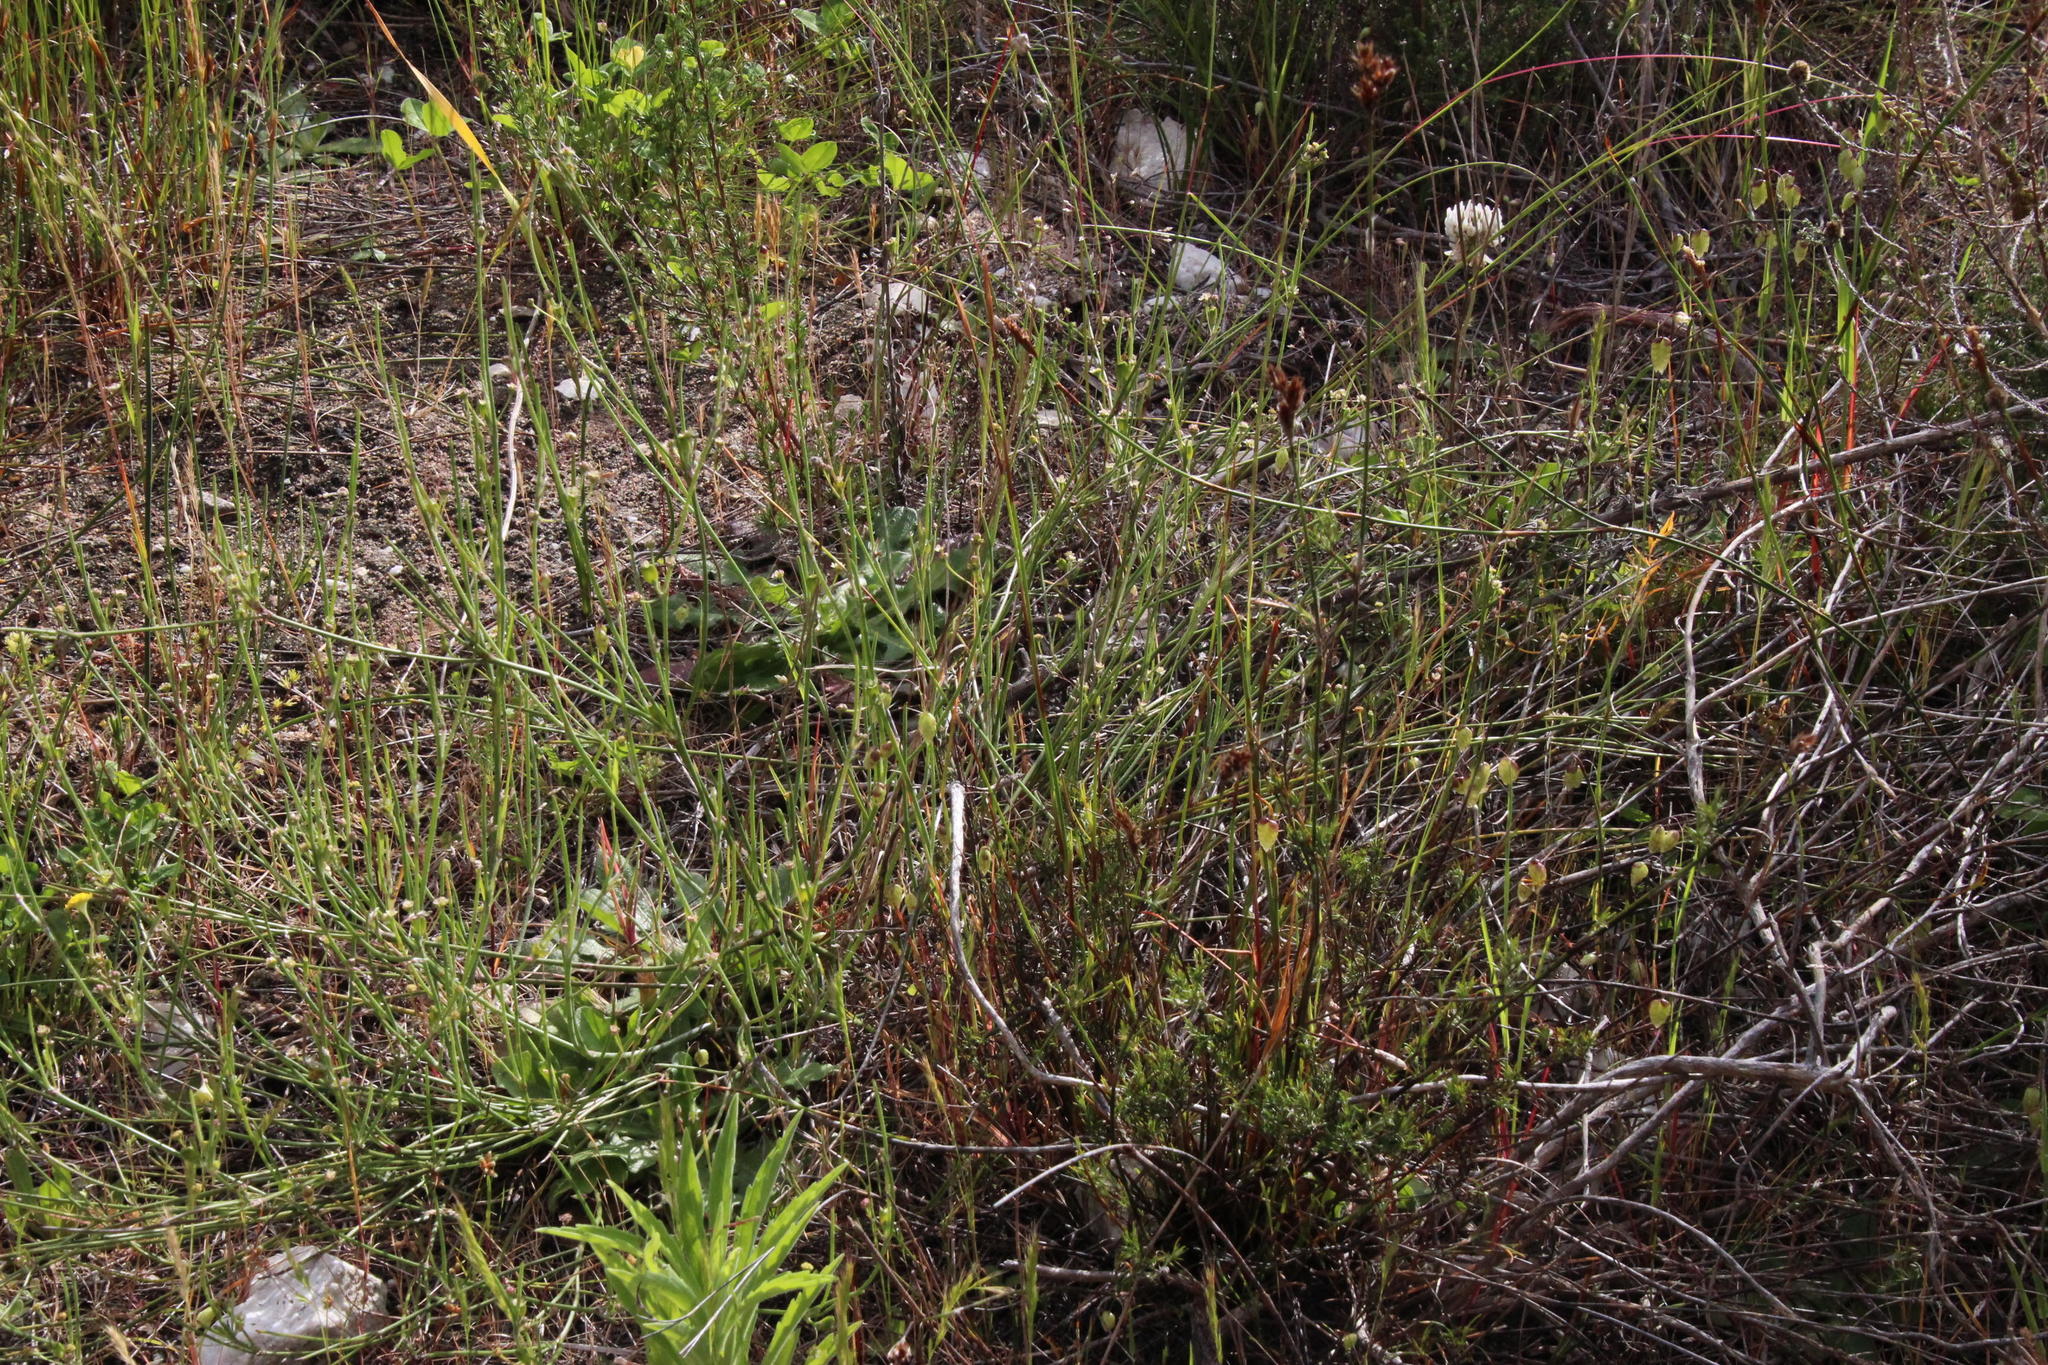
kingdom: Plantae
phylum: Tracheophyta
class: Magnoliopsida
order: Apiales
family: Apiaceae
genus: Centella
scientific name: Centella macrocarpa
